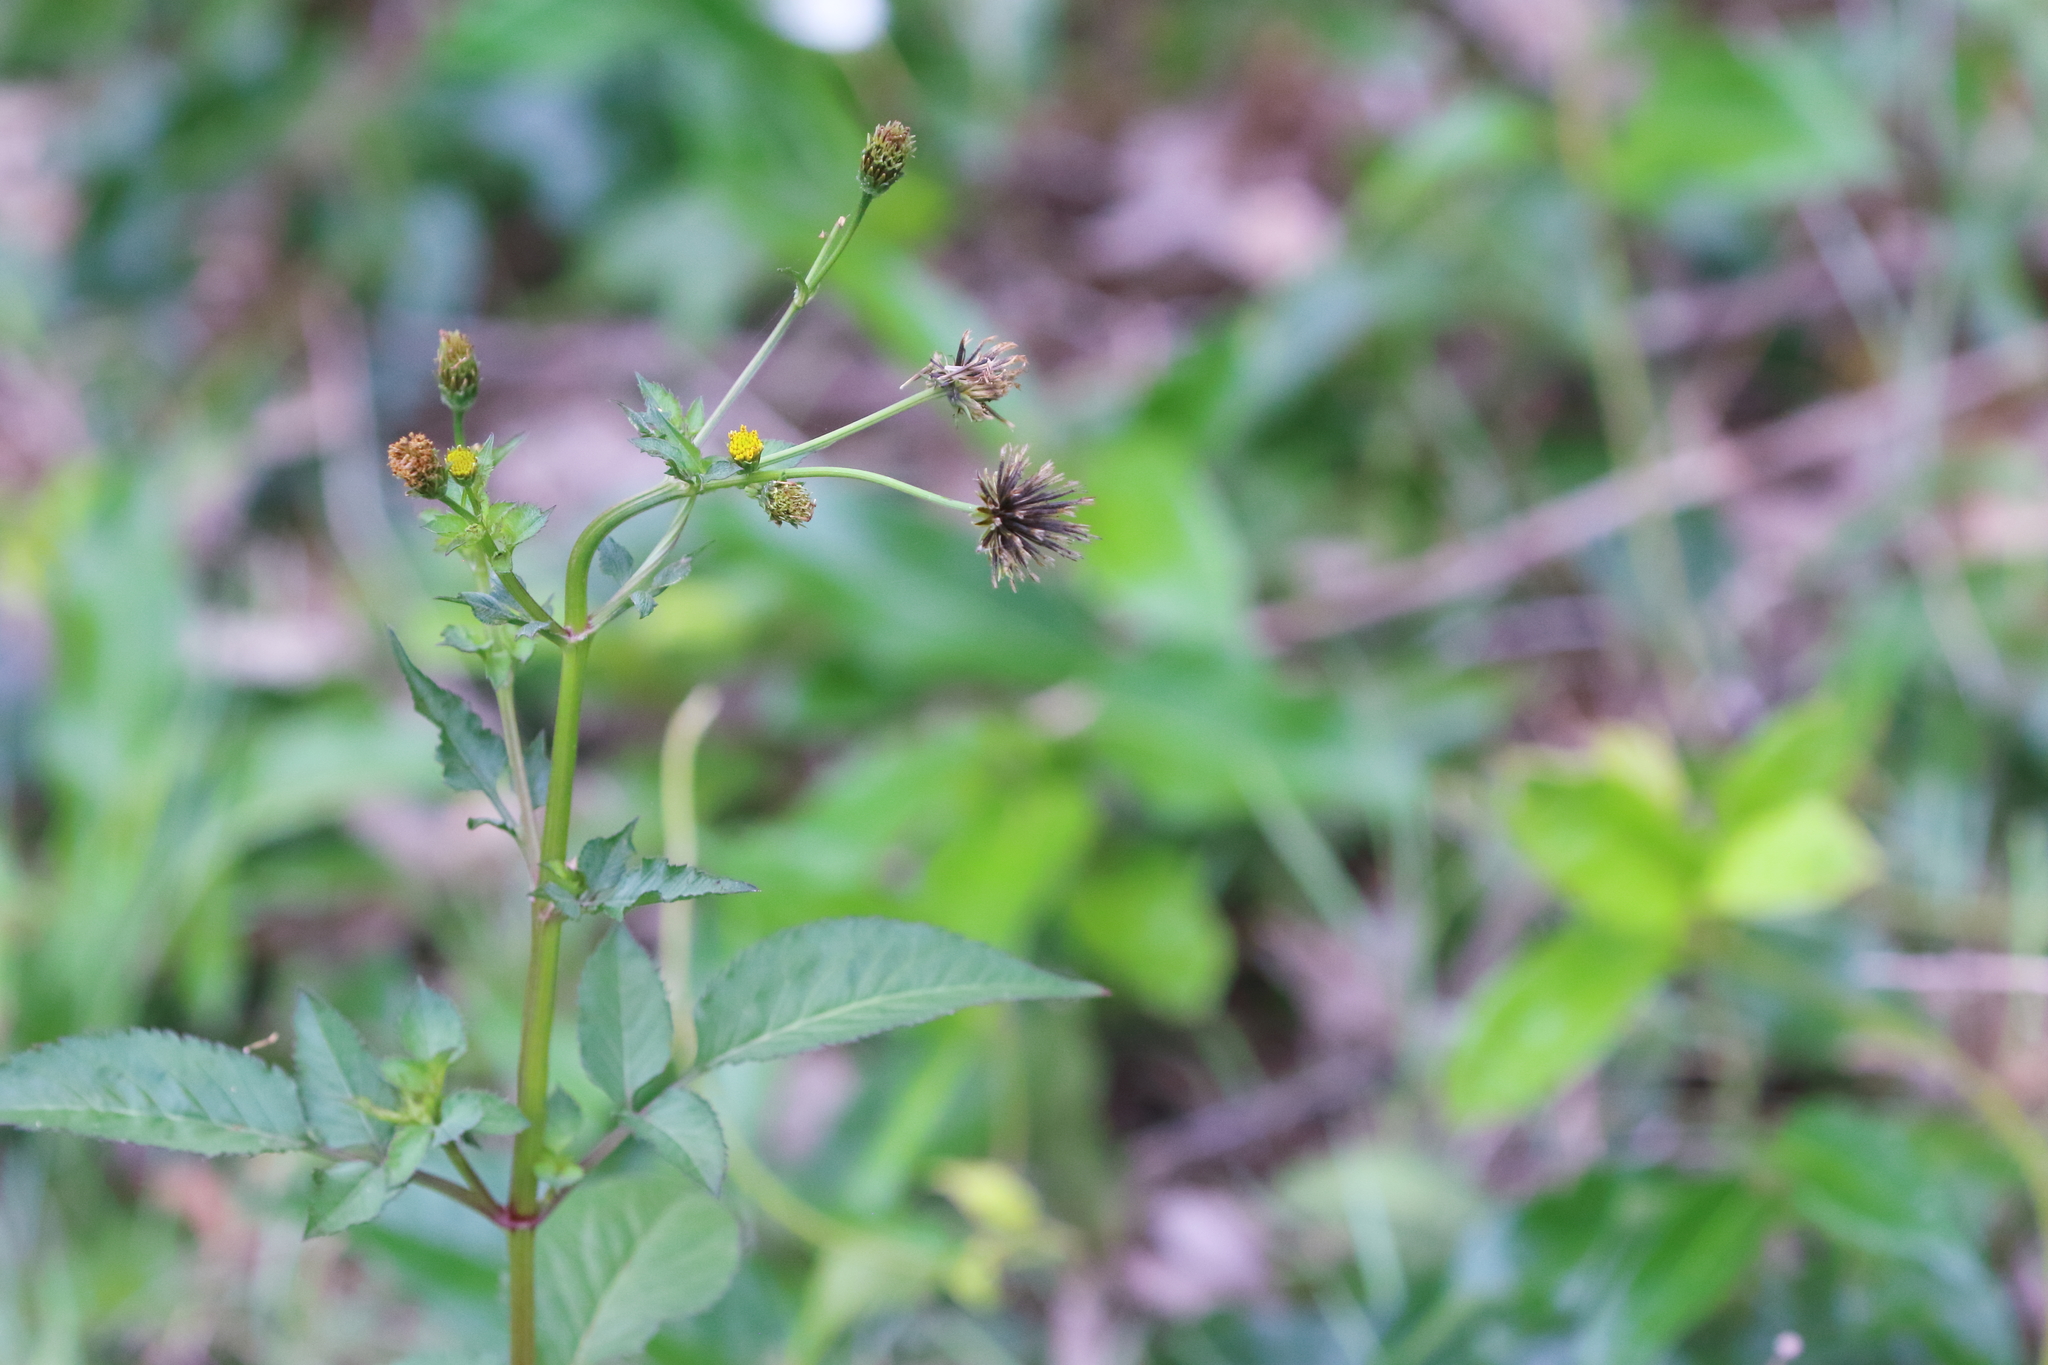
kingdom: Plantae
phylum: Tracheophyta
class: Magnoliopsida
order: Asterales
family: Asteraceae
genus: Bidens
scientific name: Bidens pilosa
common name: Black-jack
